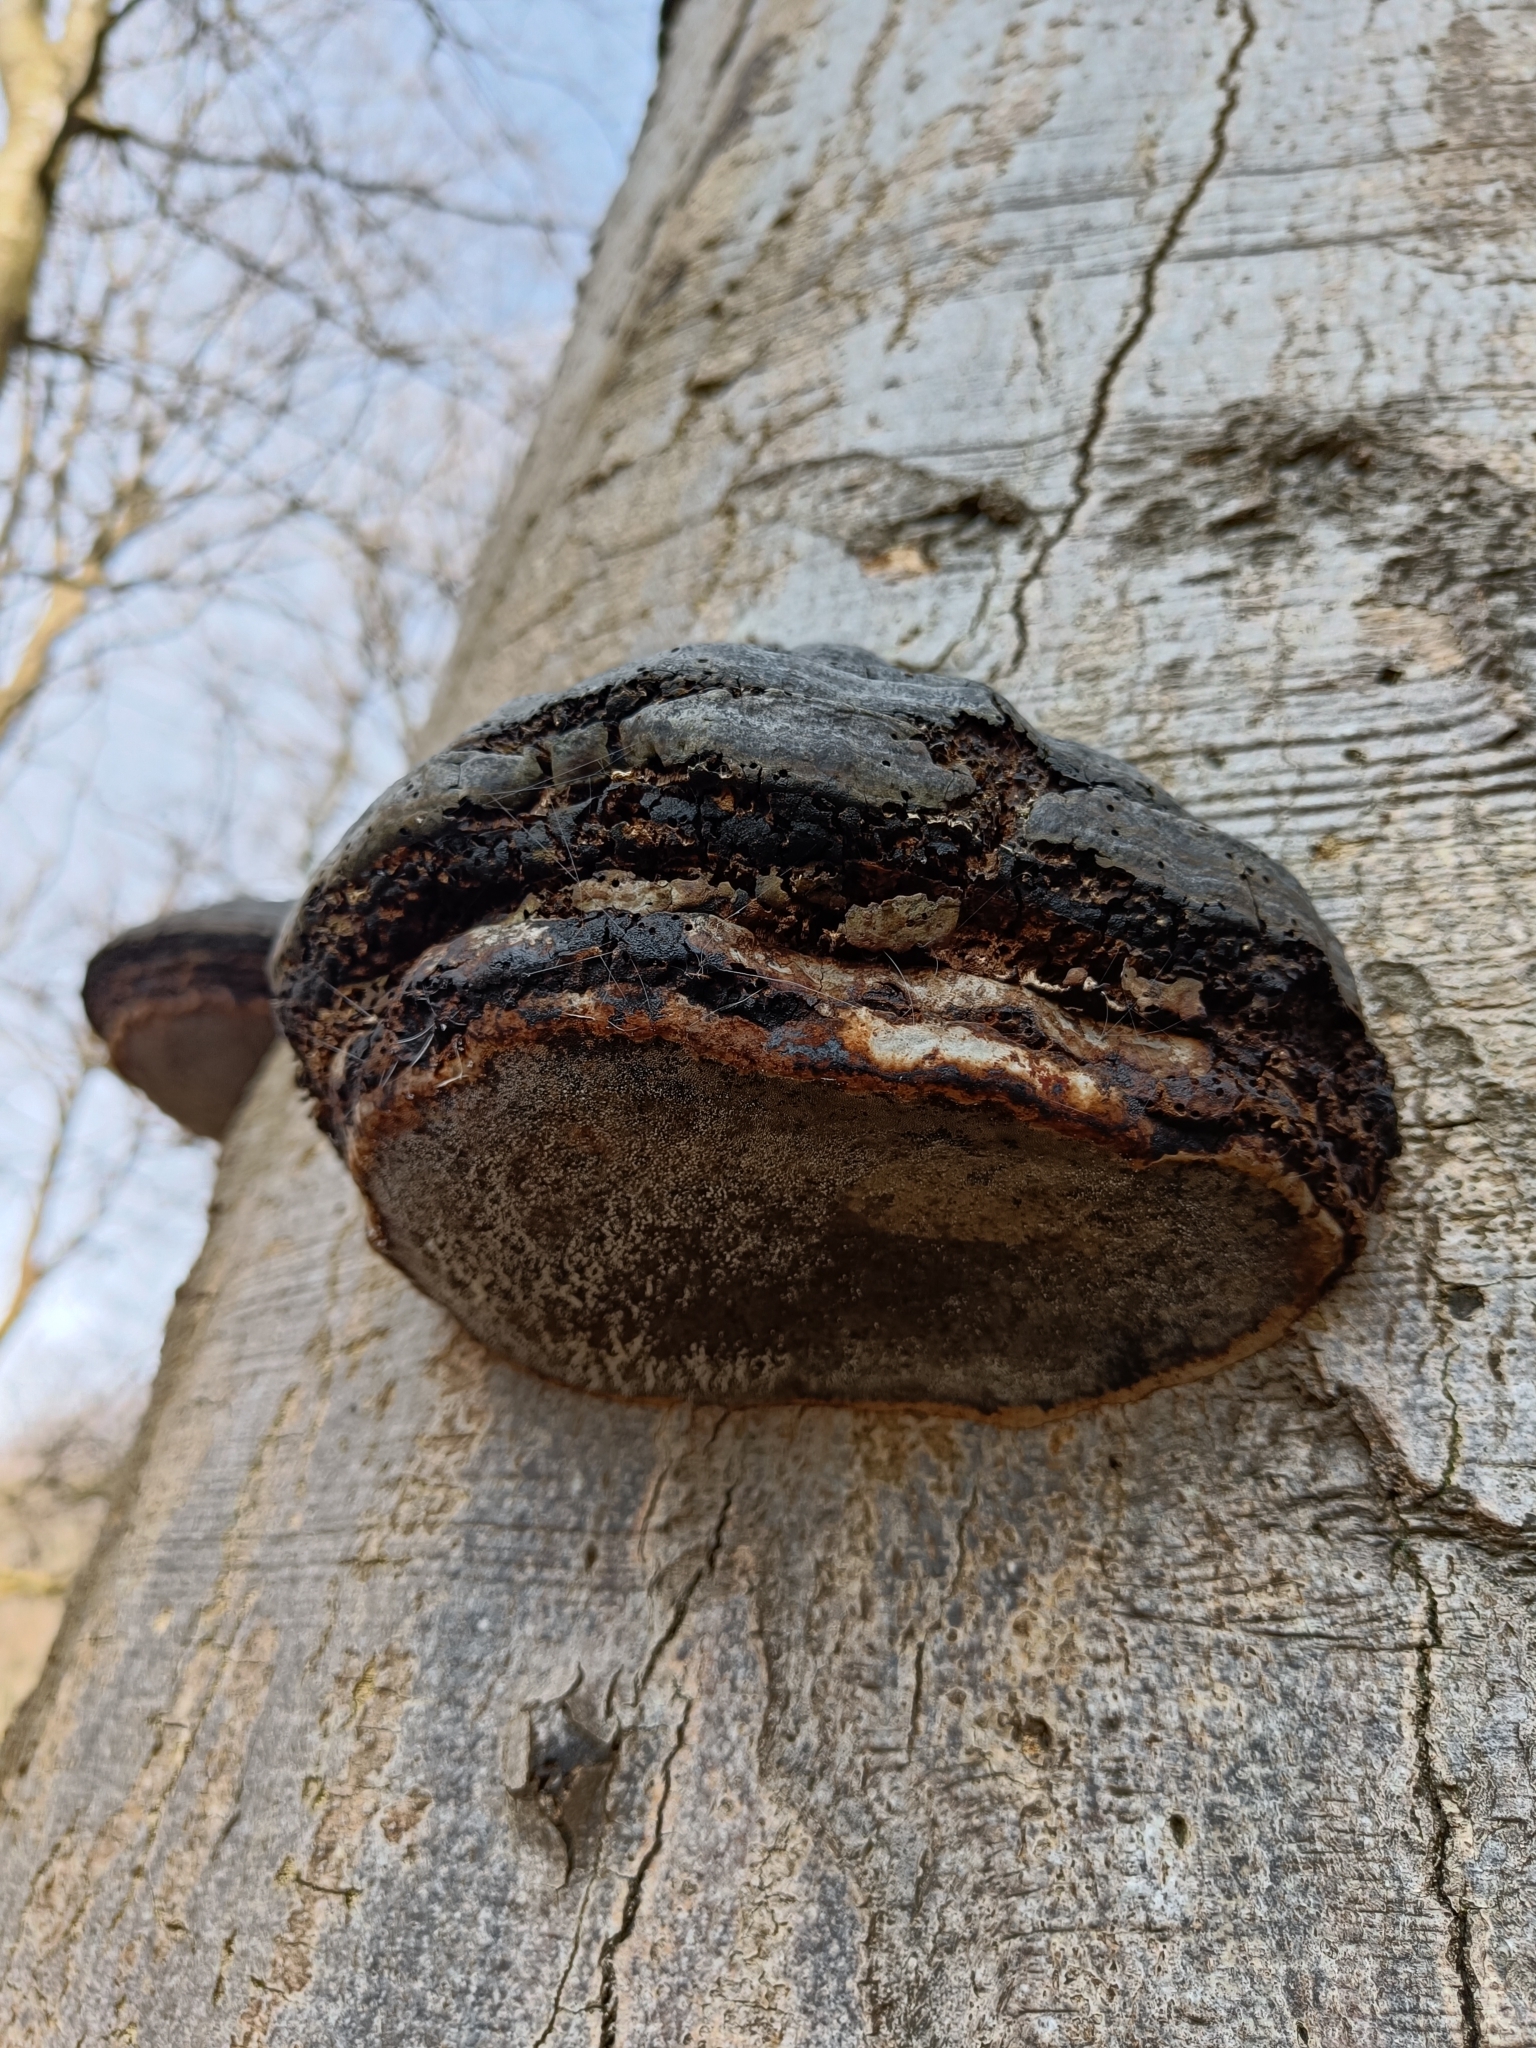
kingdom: Fungi
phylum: Basidiomycota
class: Agaricomycetes
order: Polyporales
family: Polyporaceae
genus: Fomes
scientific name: Fomes fomentarius
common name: Hoof fungus
